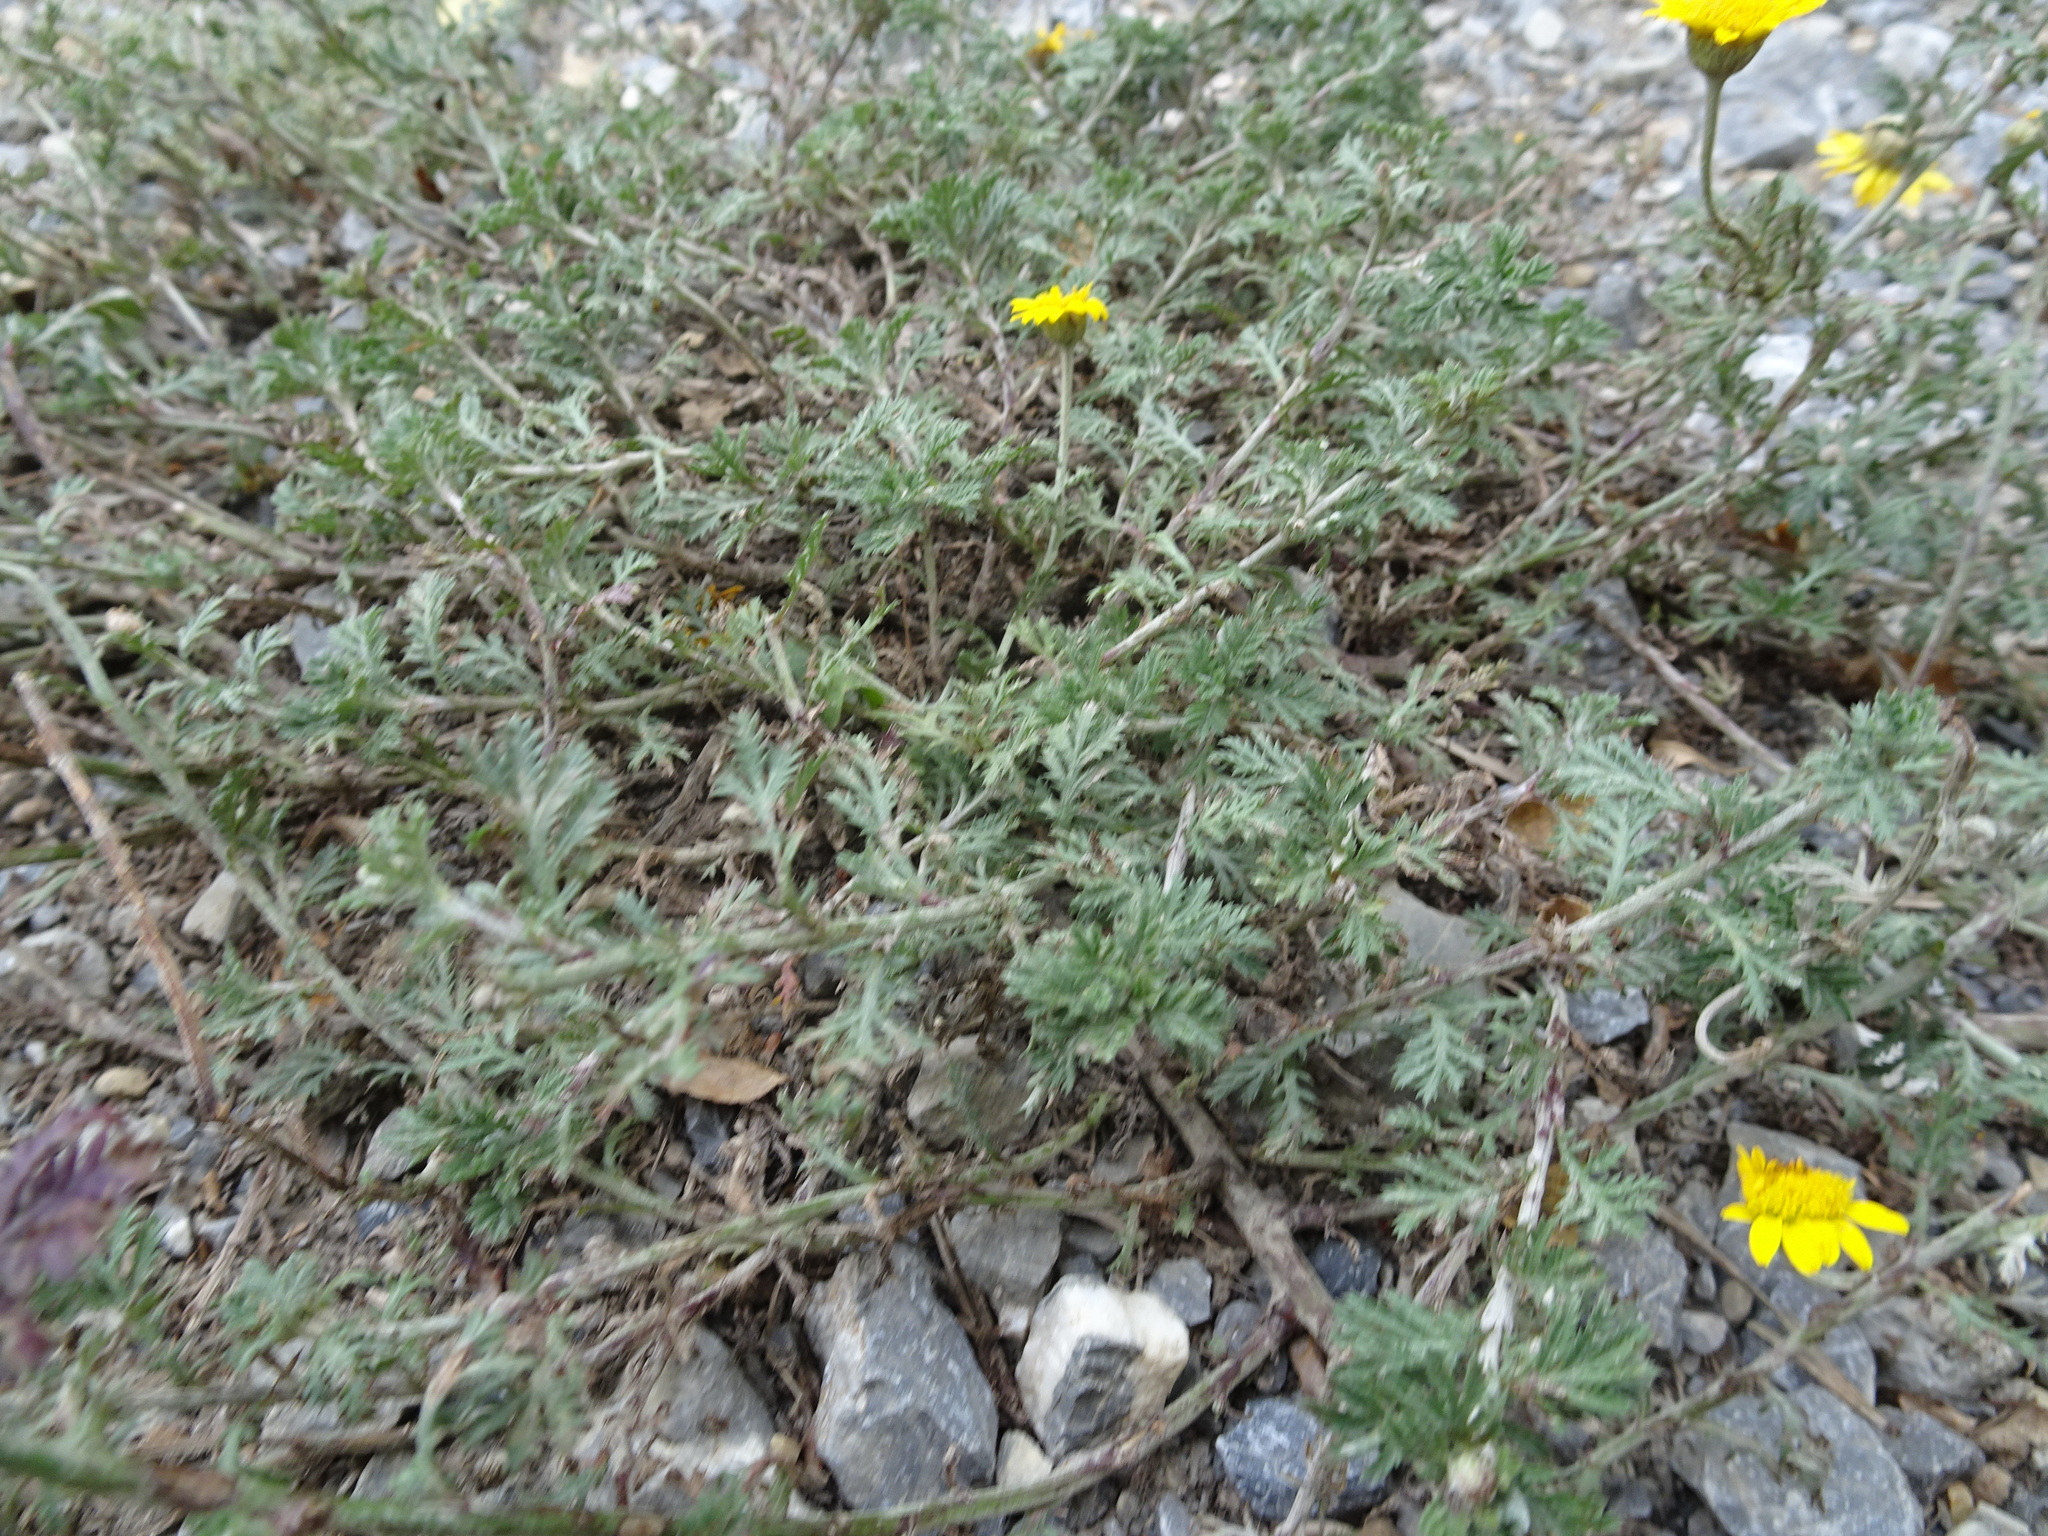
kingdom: Plantae
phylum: Tracheophyta
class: Magnoliopsida
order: Asterales
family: Asteraceae
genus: Cota
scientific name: Cota tinctoria
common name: Golden chamomile
